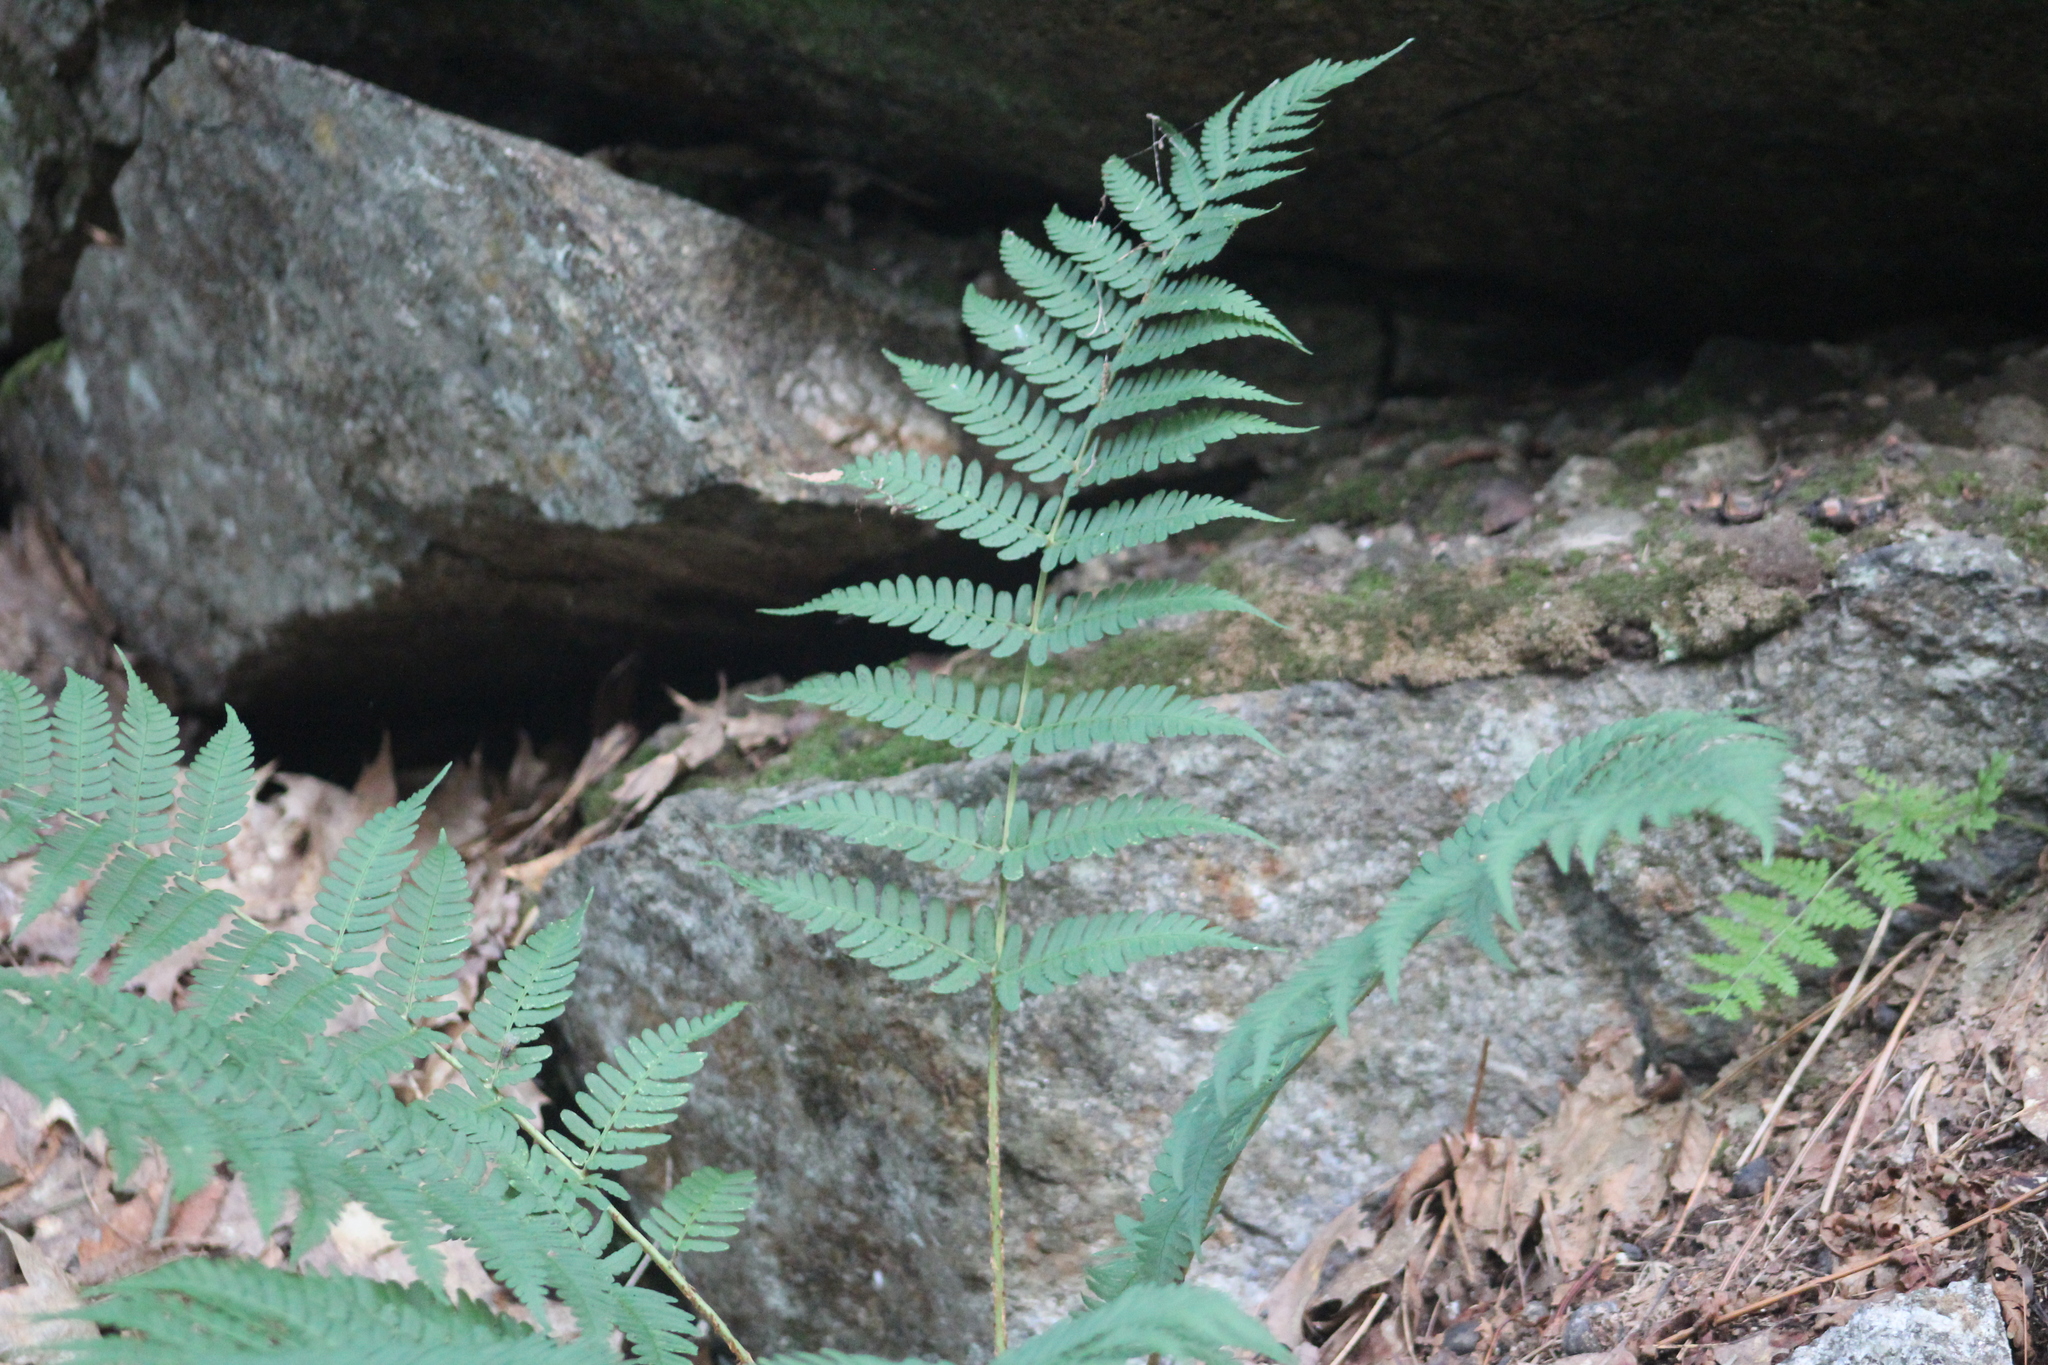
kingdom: Plantae
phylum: Tracheophyta
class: Polypodiopsida
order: Polypodiales
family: Dryopteridaceae
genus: Dryopteris
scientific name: Dryopteris marginalis
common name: Marginal wood fern
